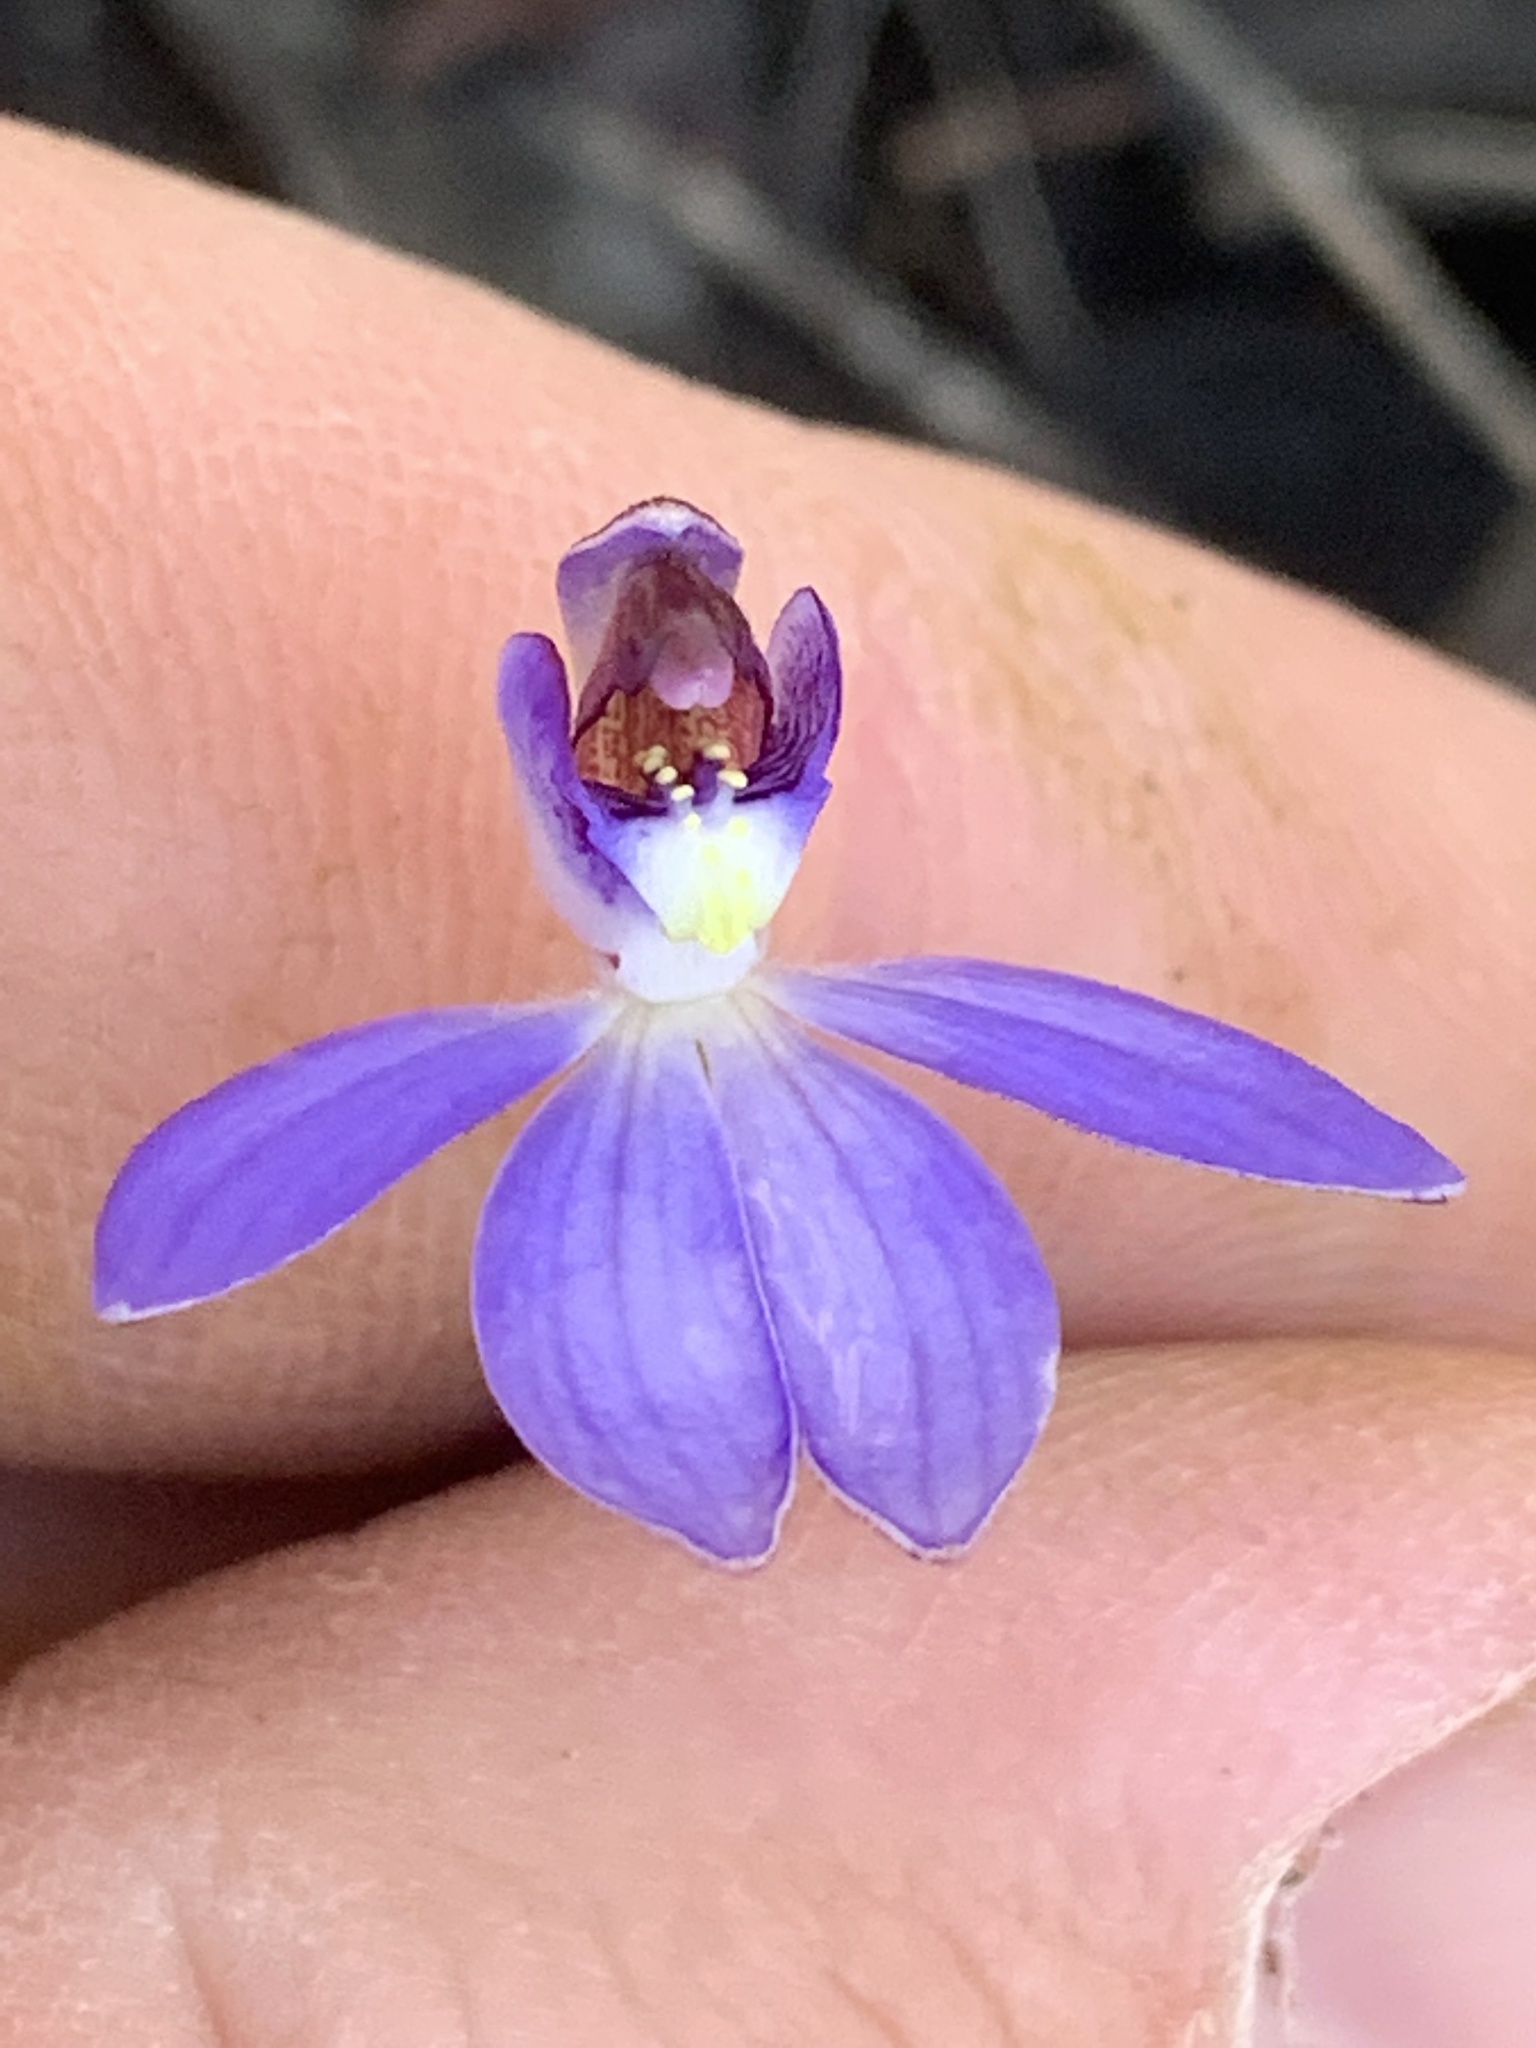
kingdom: Plantae
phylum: Tracheophyta
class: Liliopsida
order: Asparagales
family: Orchidaceae
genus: Caladenia
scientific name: Caladenia caerulea
